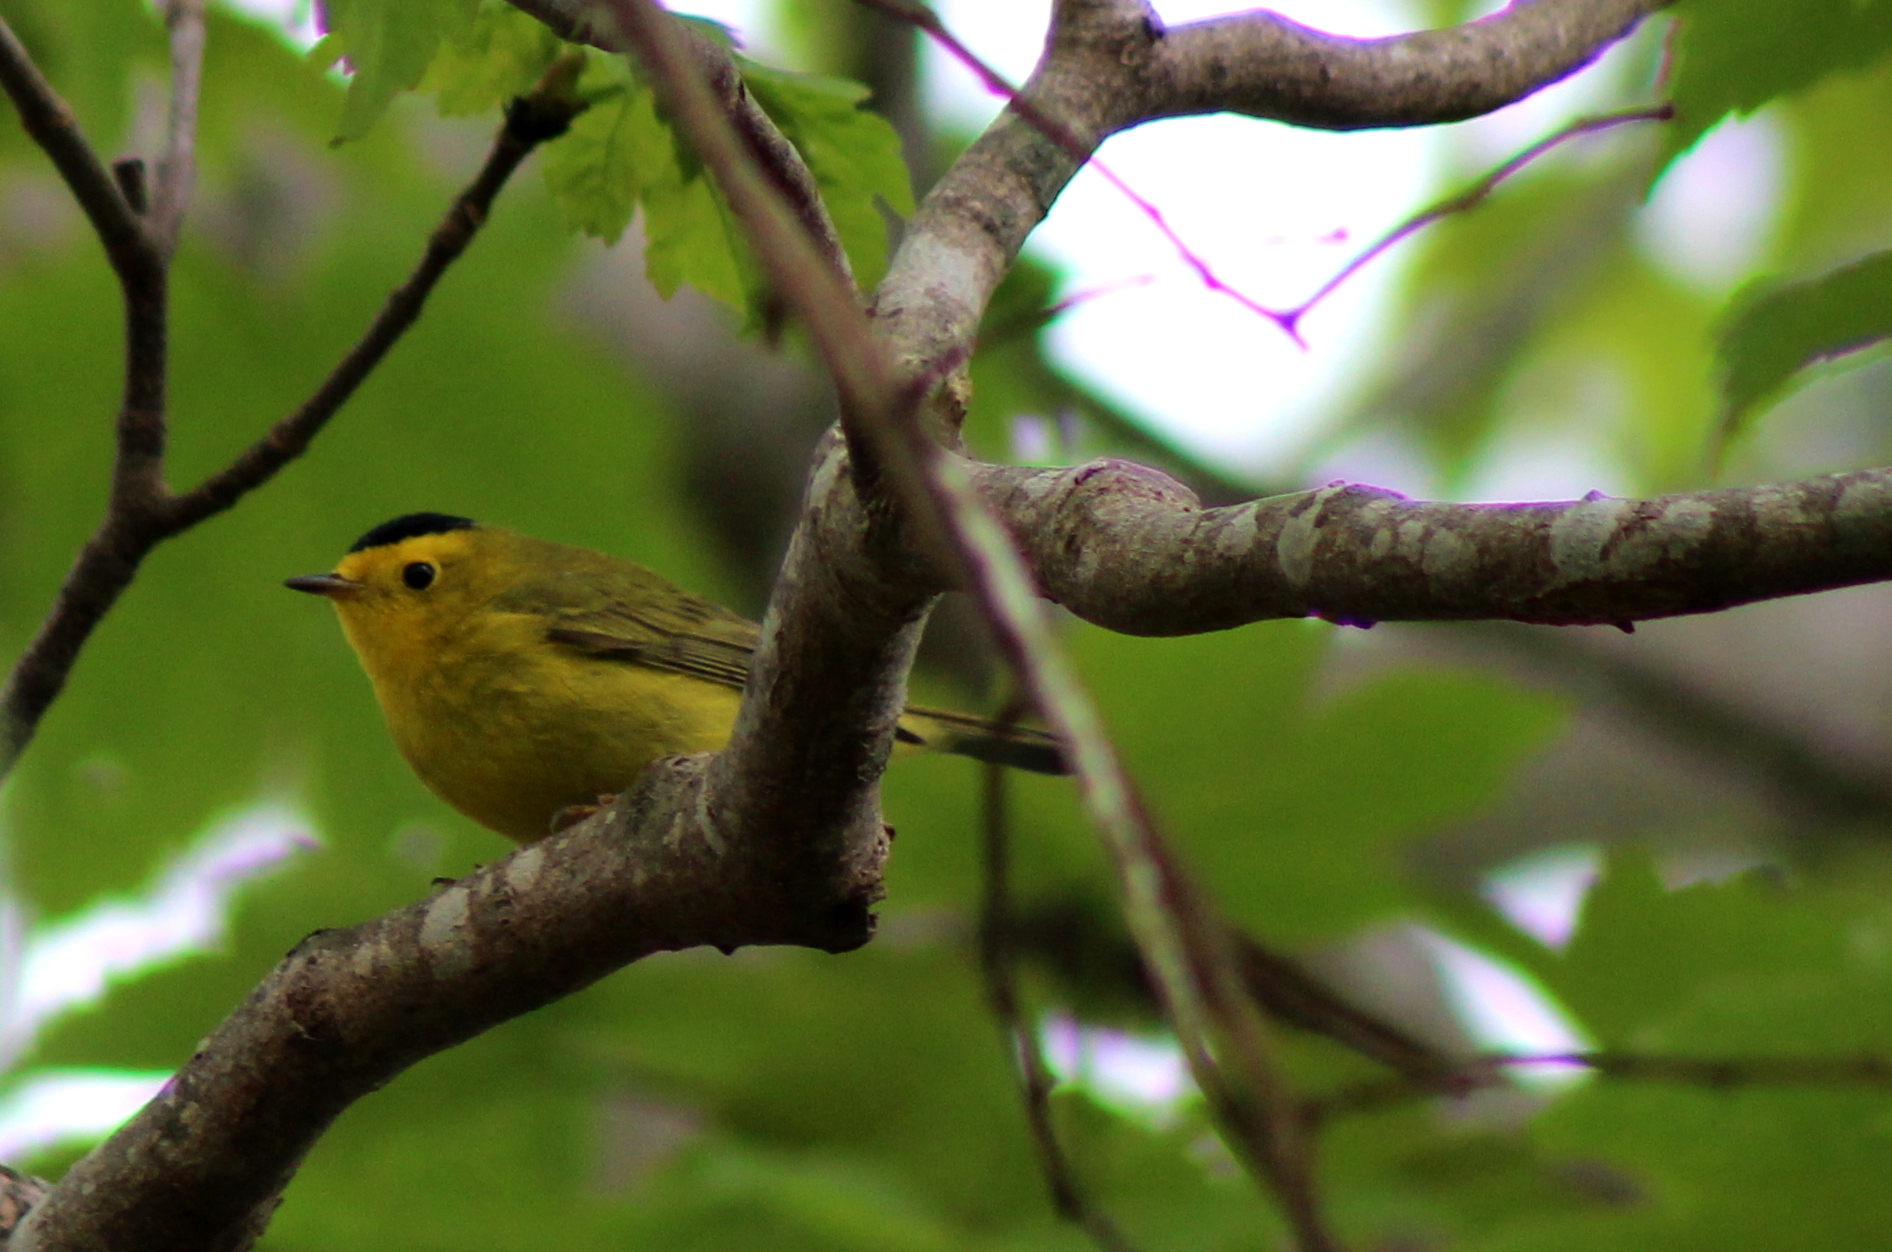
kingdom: Animalia
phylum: Chordata
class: Aves
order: Passeriformes
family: Parulidae
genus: Cardellina
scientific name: Cardellina pusilla
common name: Wilson's warbler
